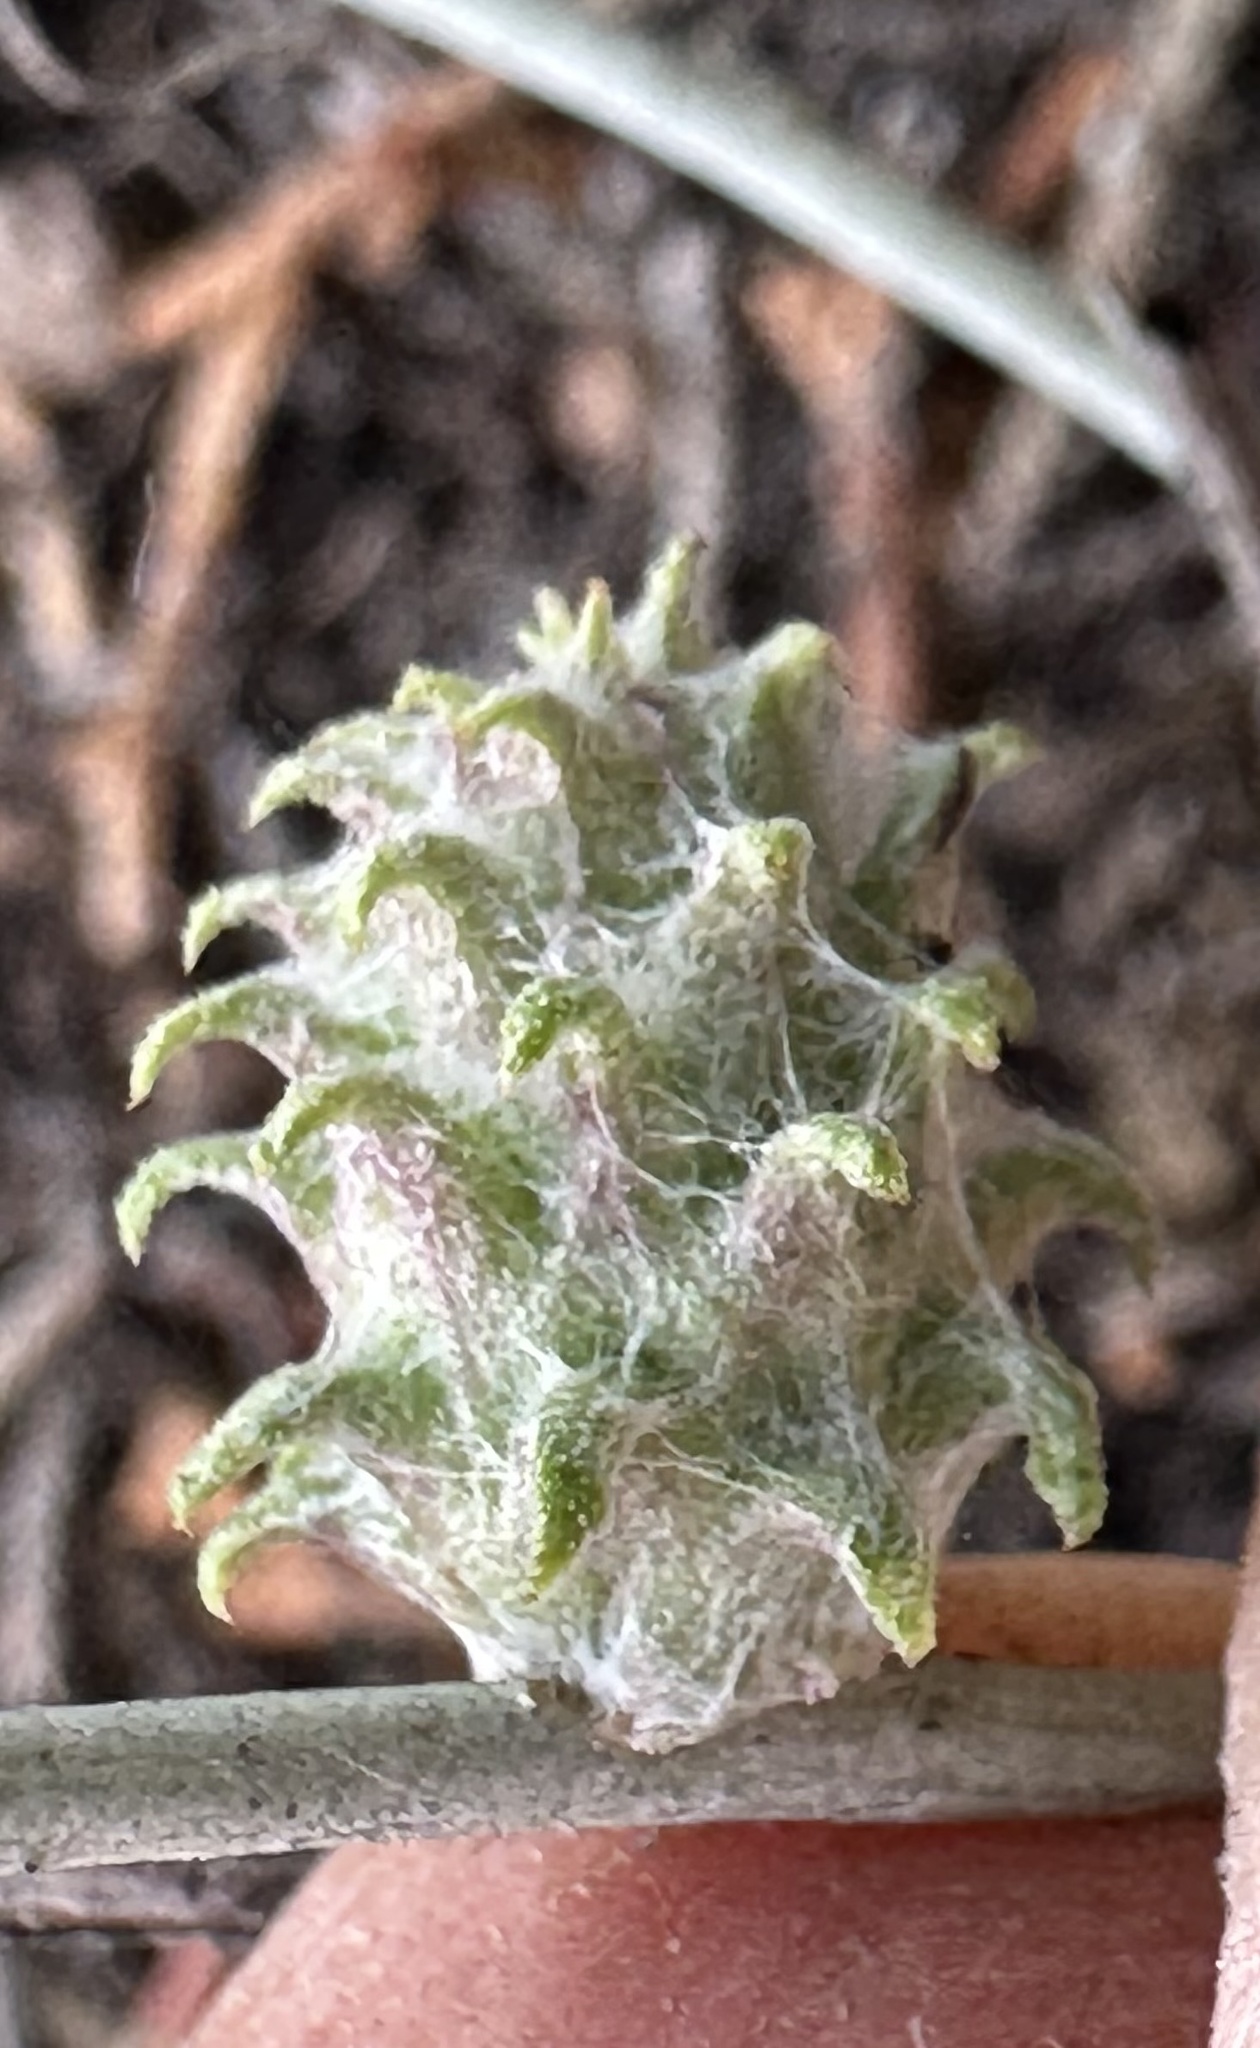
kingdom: Animalia
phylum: Arthropoda
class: Insecta
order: Diptera
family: Cecidomyiidae
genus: Rhopalomyia
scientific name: Rhopalomyia utahensis
